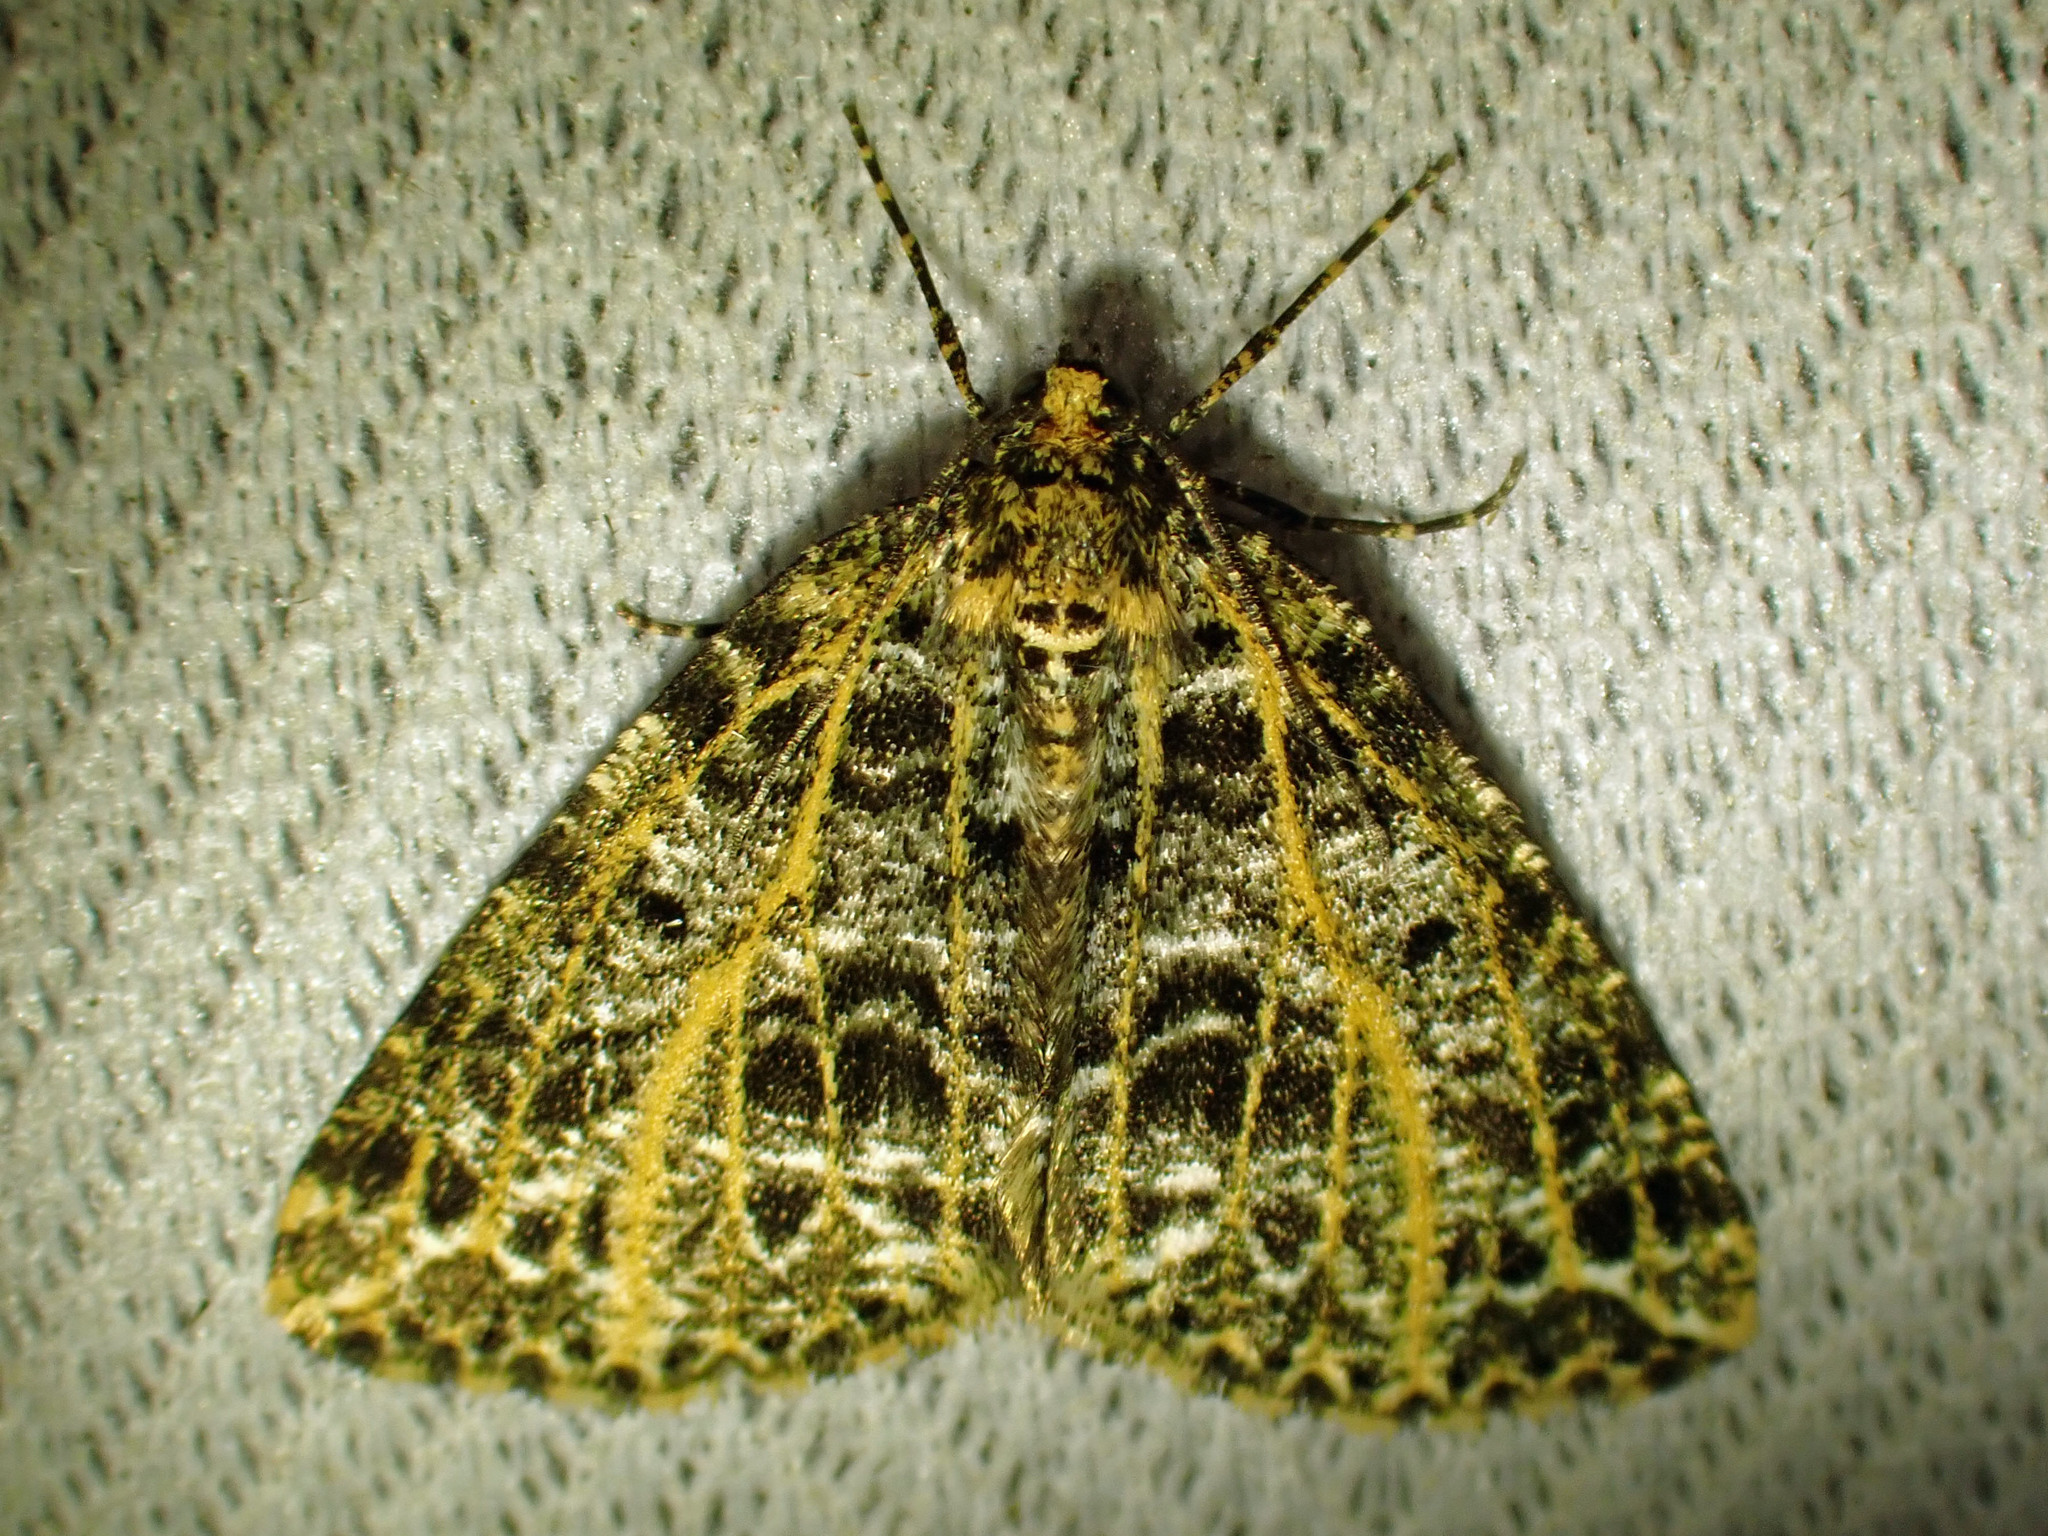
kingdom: Animalia
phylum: Arthropoda
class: Insecta
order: Lepidoptera
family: Geometridae
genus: Orthofidonia
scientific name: Orthofidonia flavivenata
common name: Yellow-veined geometer moth
